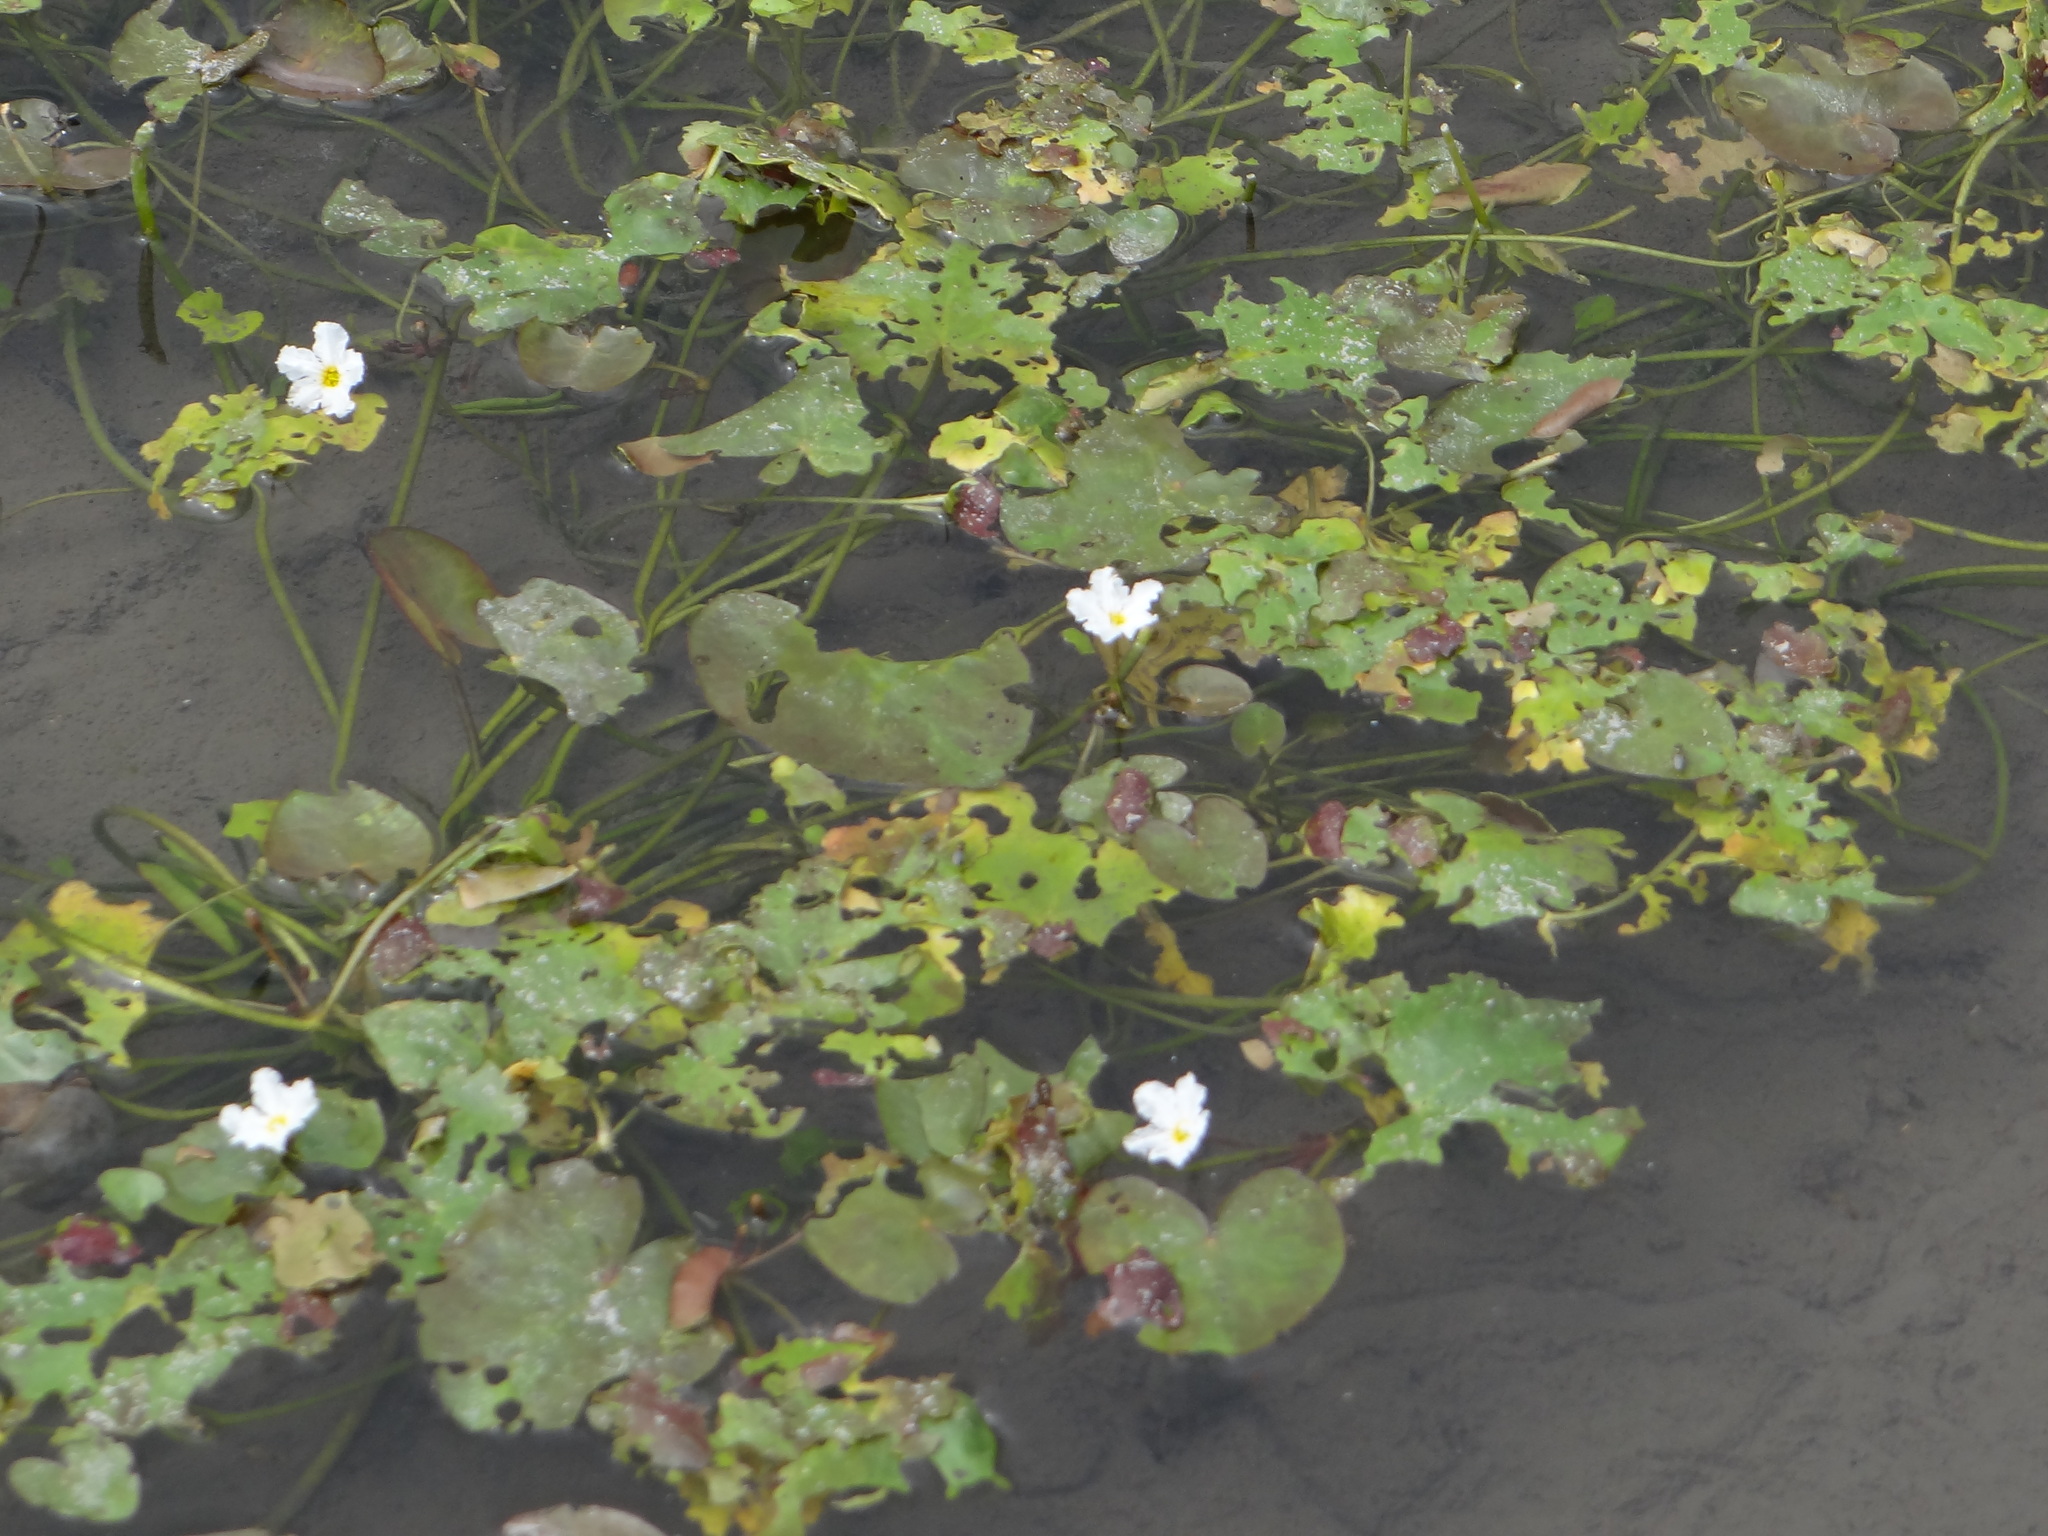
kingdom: Plantae
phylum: Tracheophyta
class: Magnoliopsida
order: Asterales
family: Menyanthaceae
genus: Nymphoides
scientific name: Nymphoides hydrophylla
